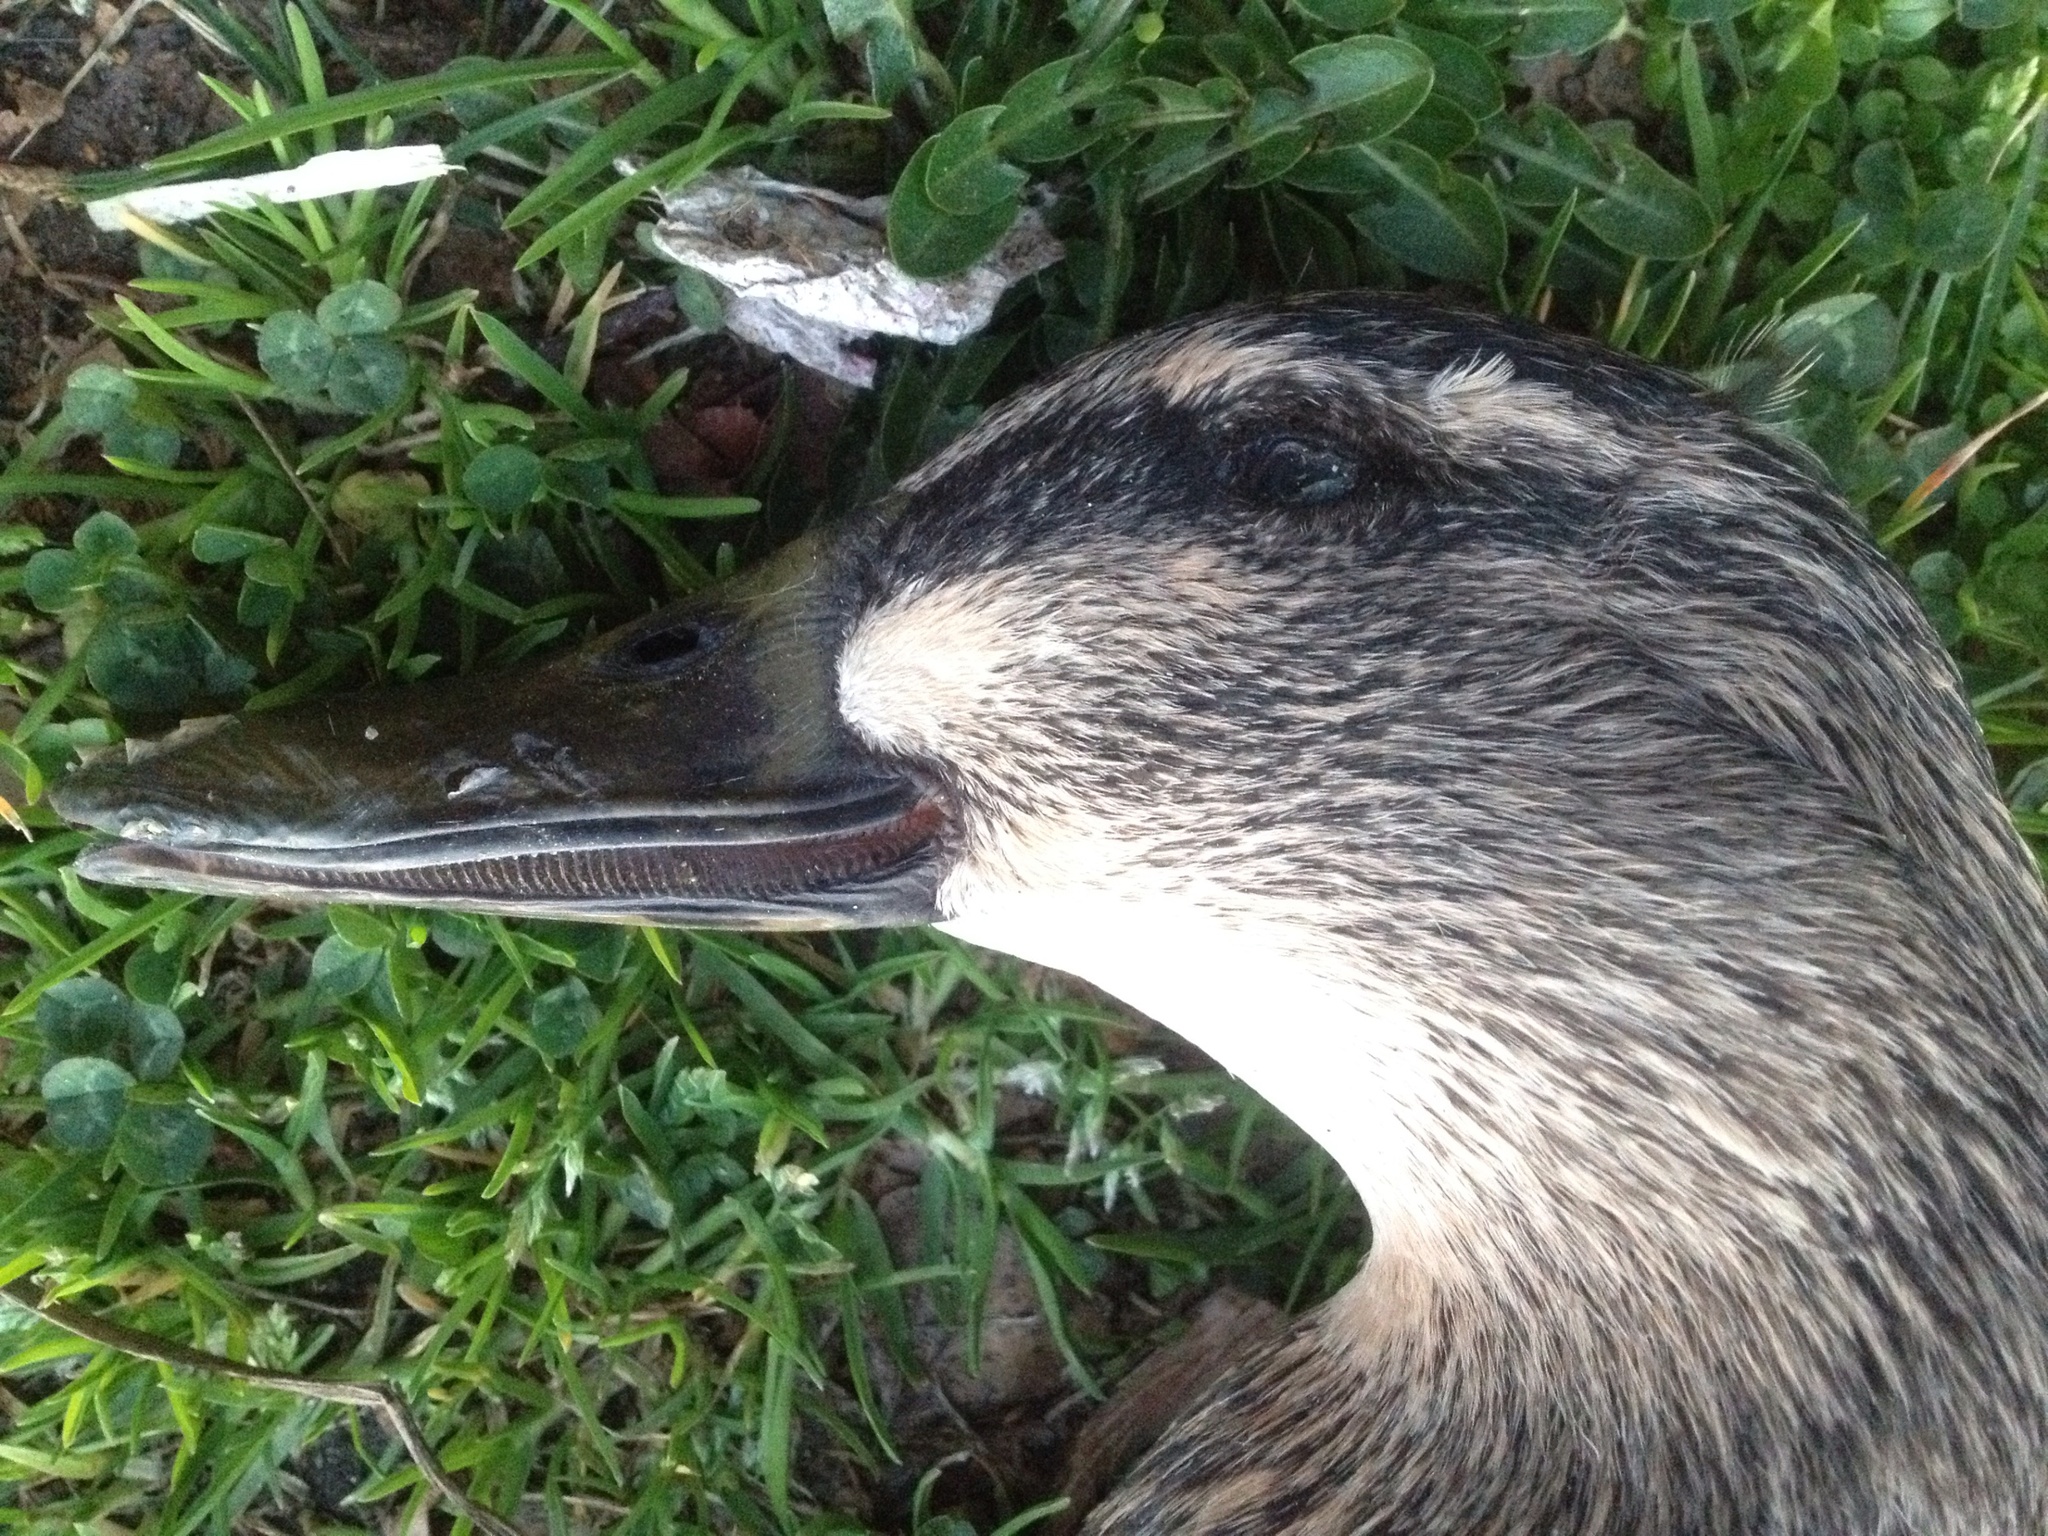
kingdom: Animalia
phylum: Chordata
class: Aves
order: Anseriformes
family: Anatidae
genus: Anas
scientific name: Anas
